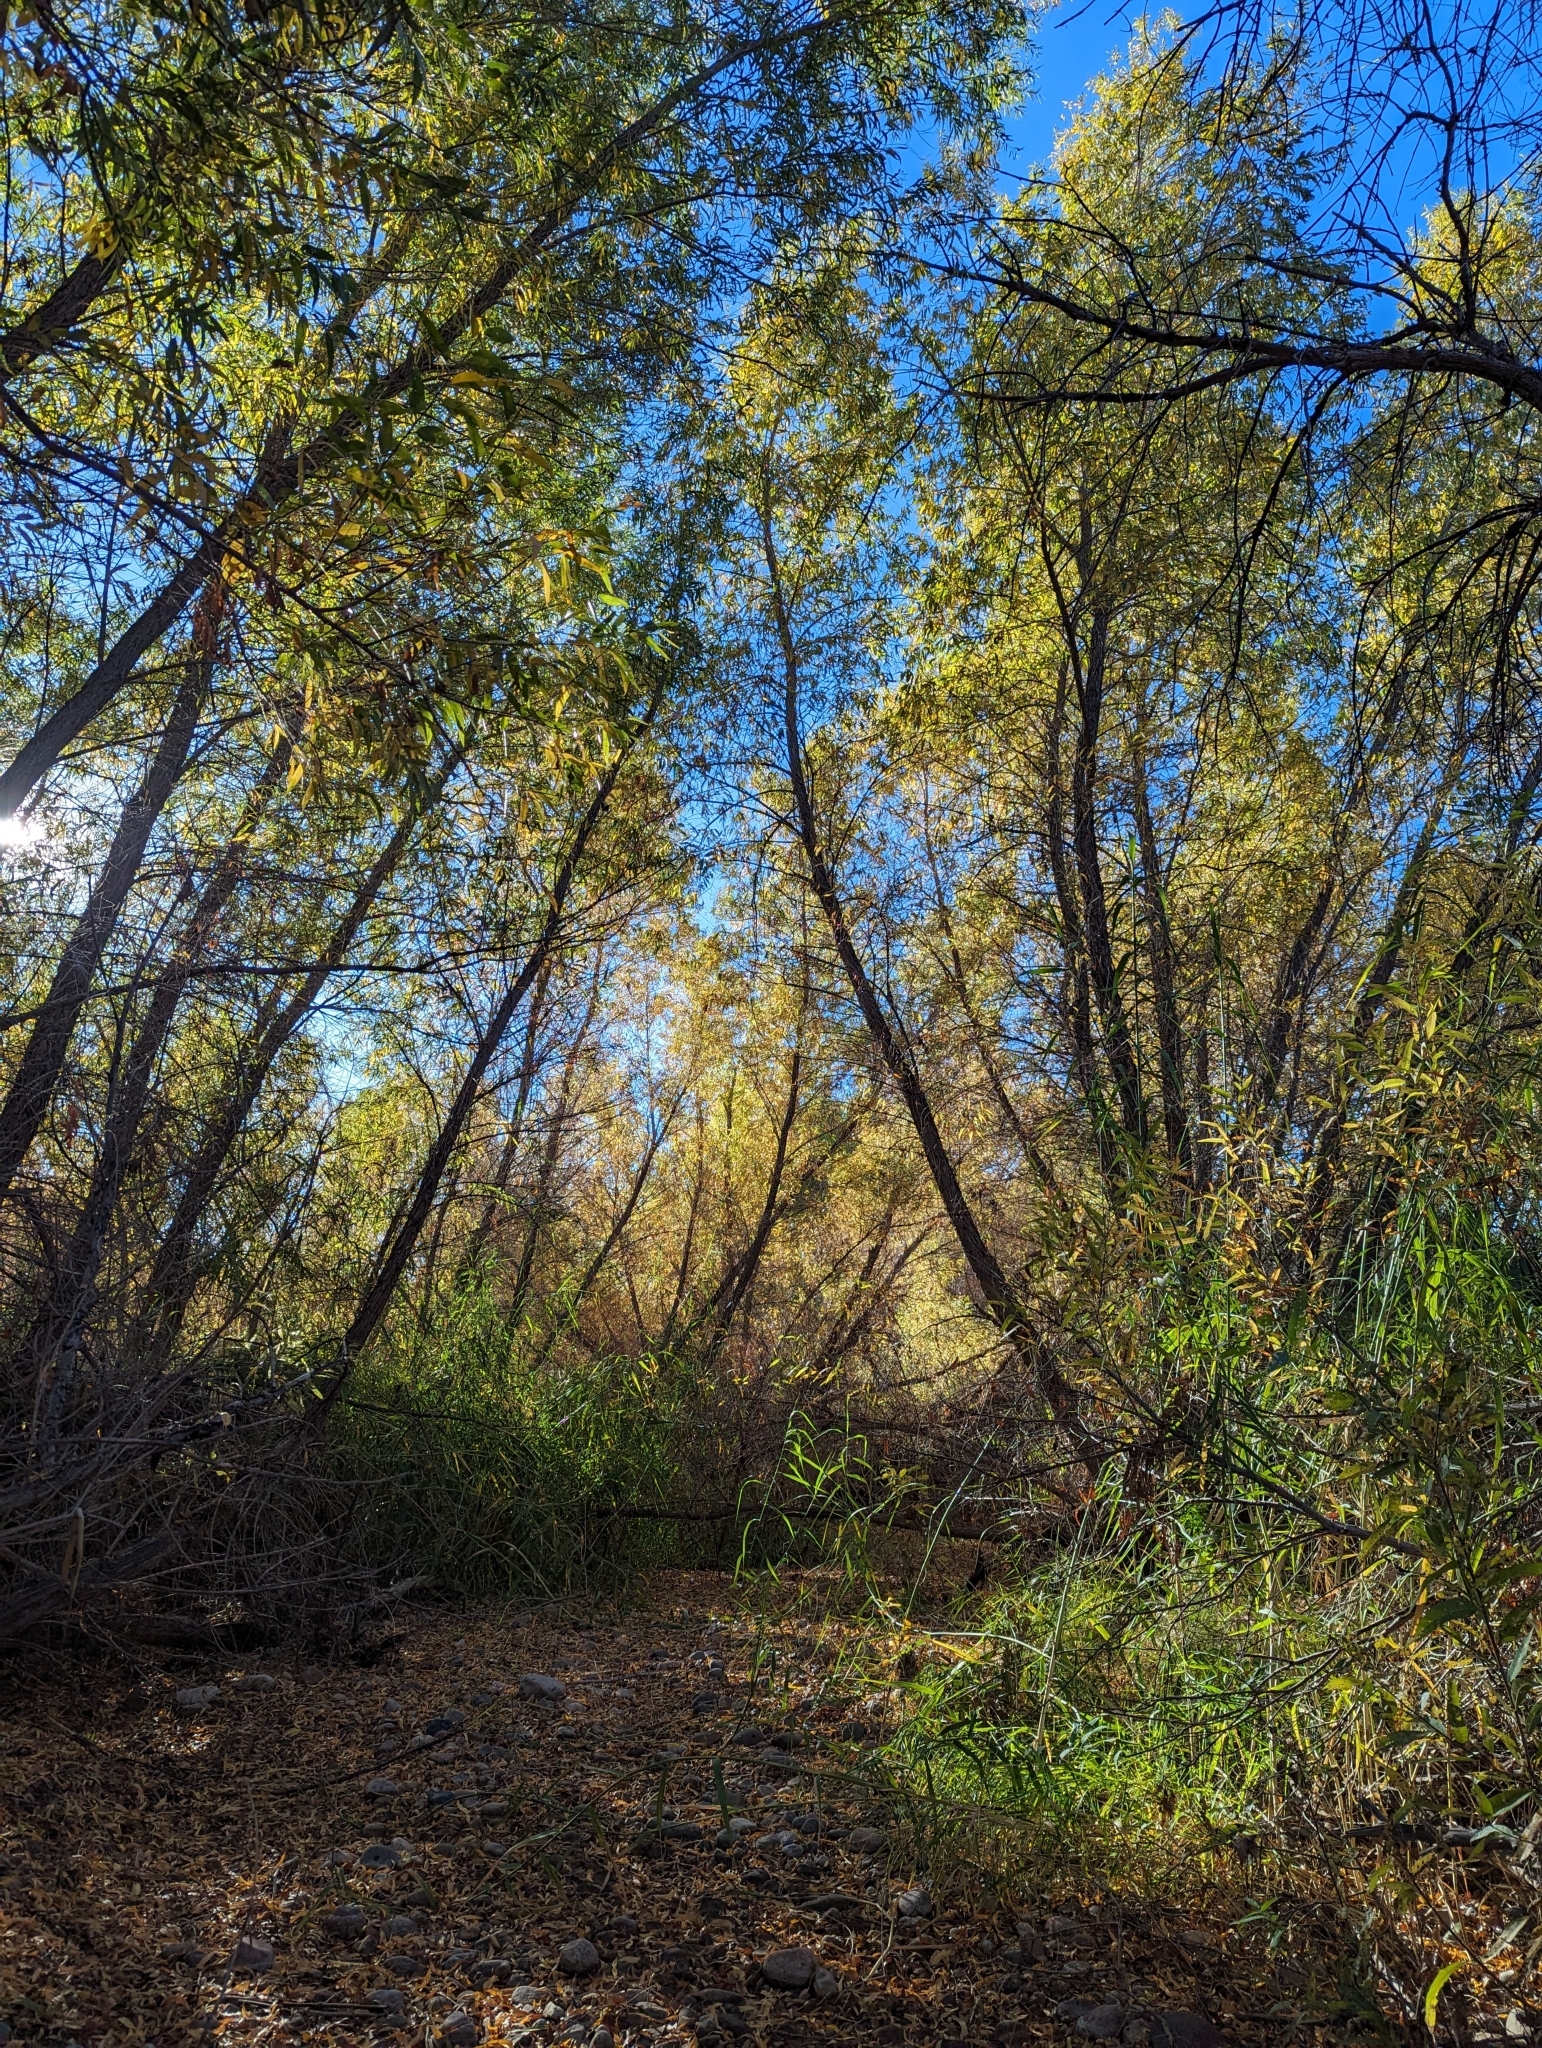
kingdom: Plantae
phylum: Tracheophyta
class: Magnoliopsida
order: Malpighiales
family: Salicaceae
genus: Salix
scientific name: Salix gooddingii
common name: Goodding's willow
